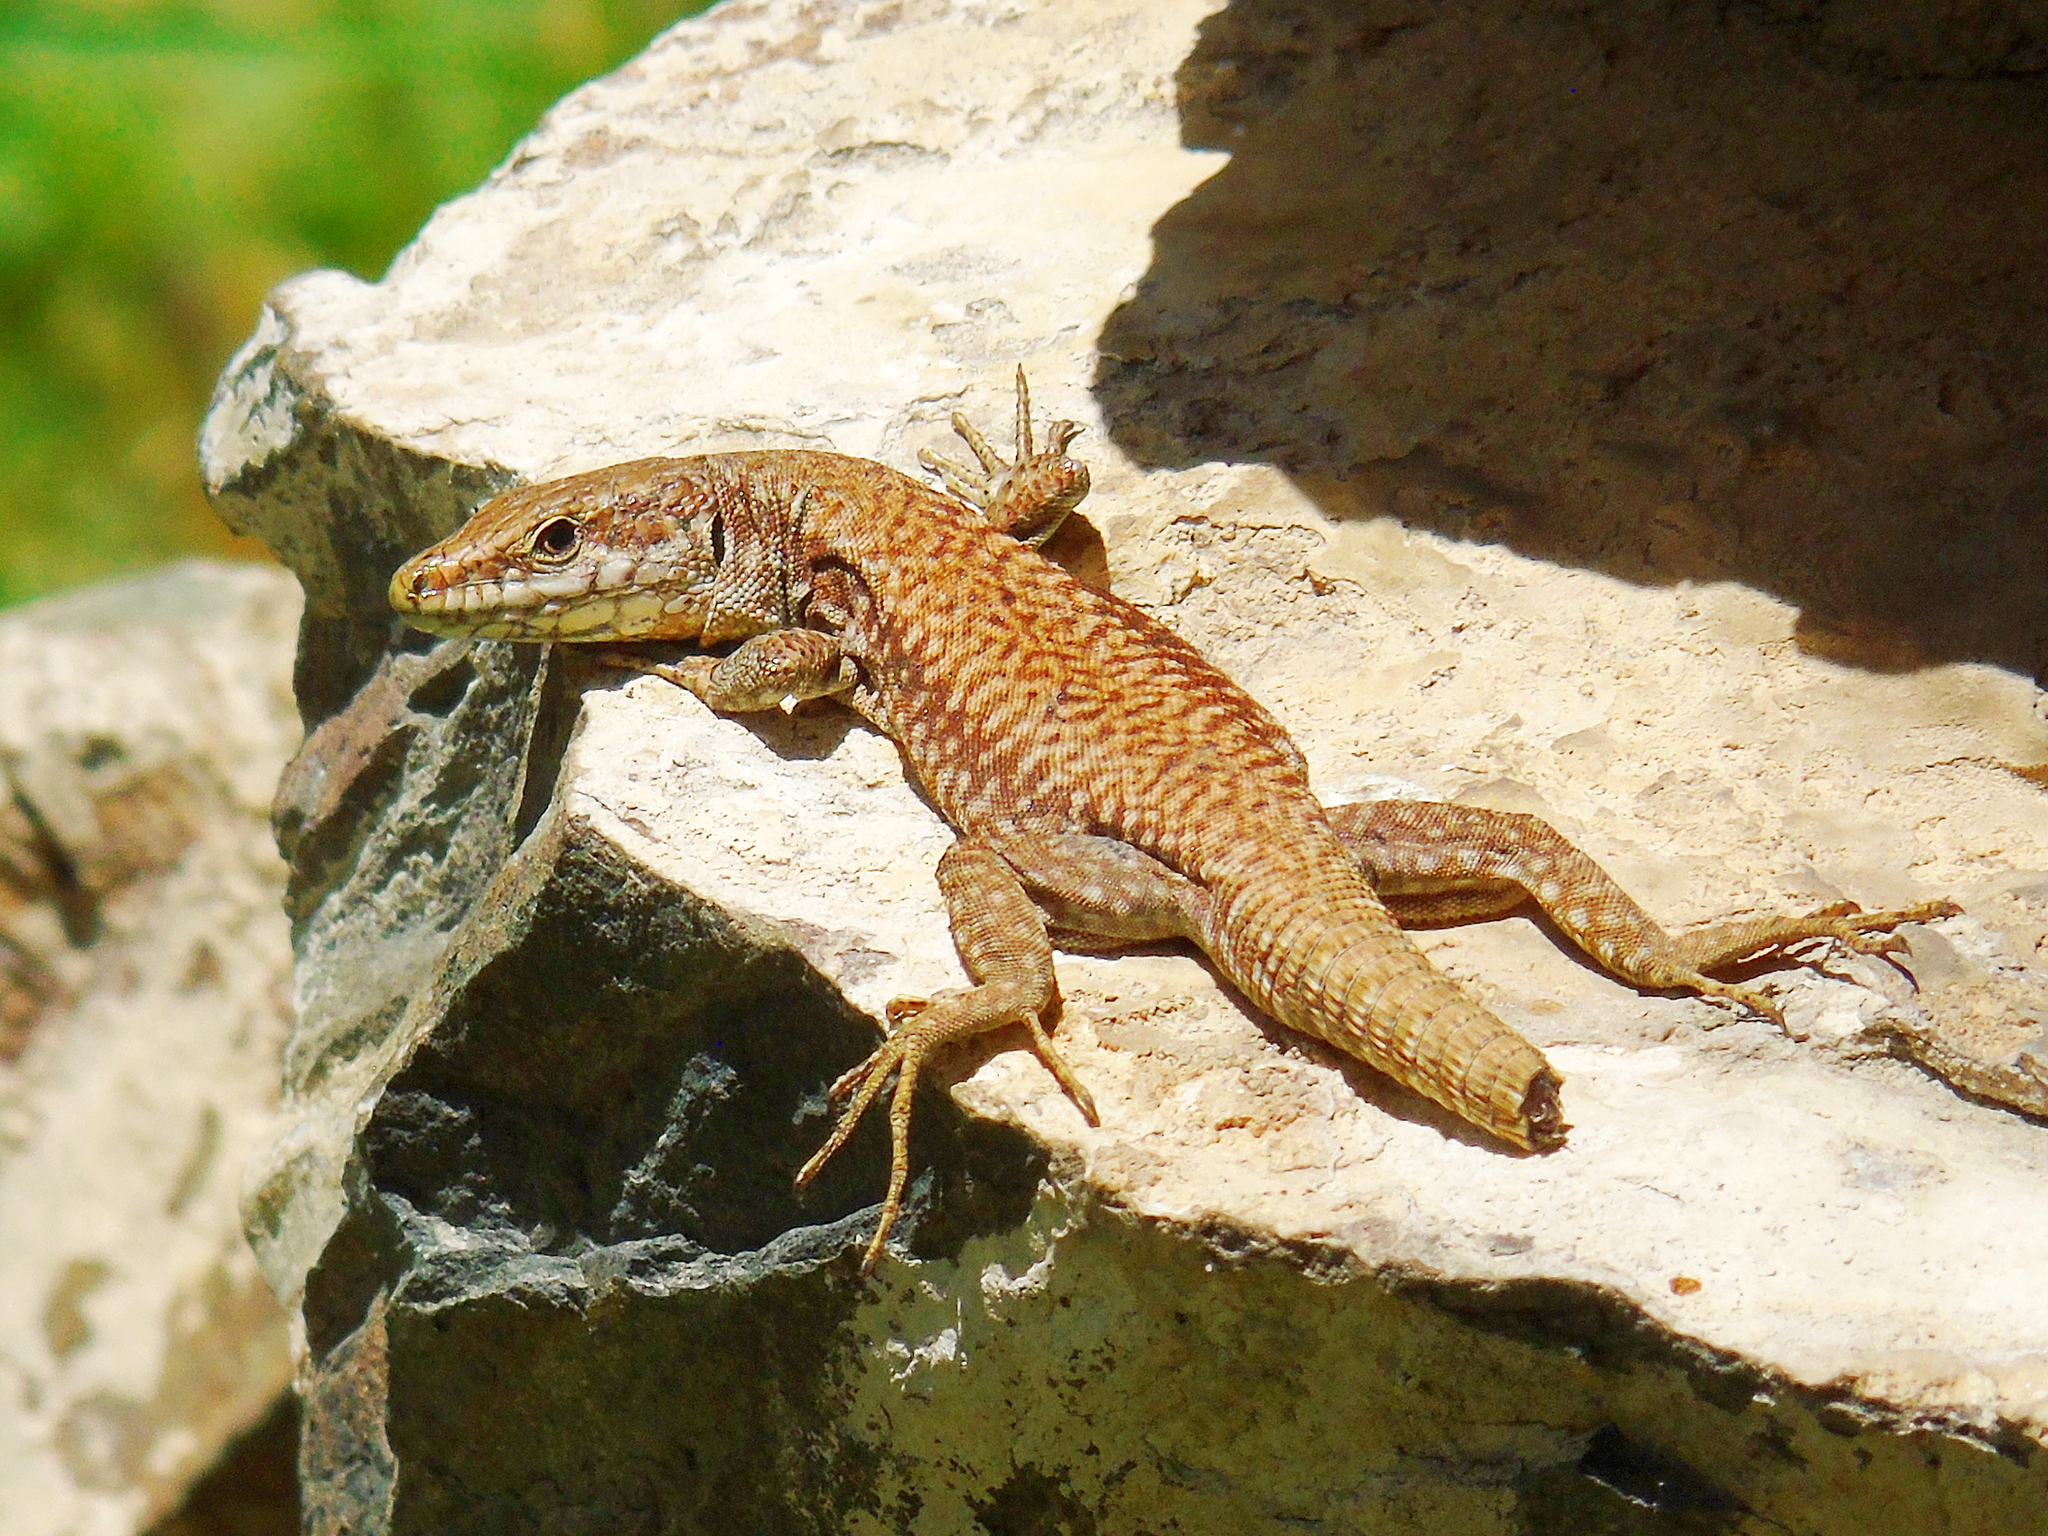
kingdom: Animalia
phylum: Chordata
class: Squamata
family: Lacertidae
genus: Podarcis
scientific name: Podarcis muralis
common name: Common wall lizard
